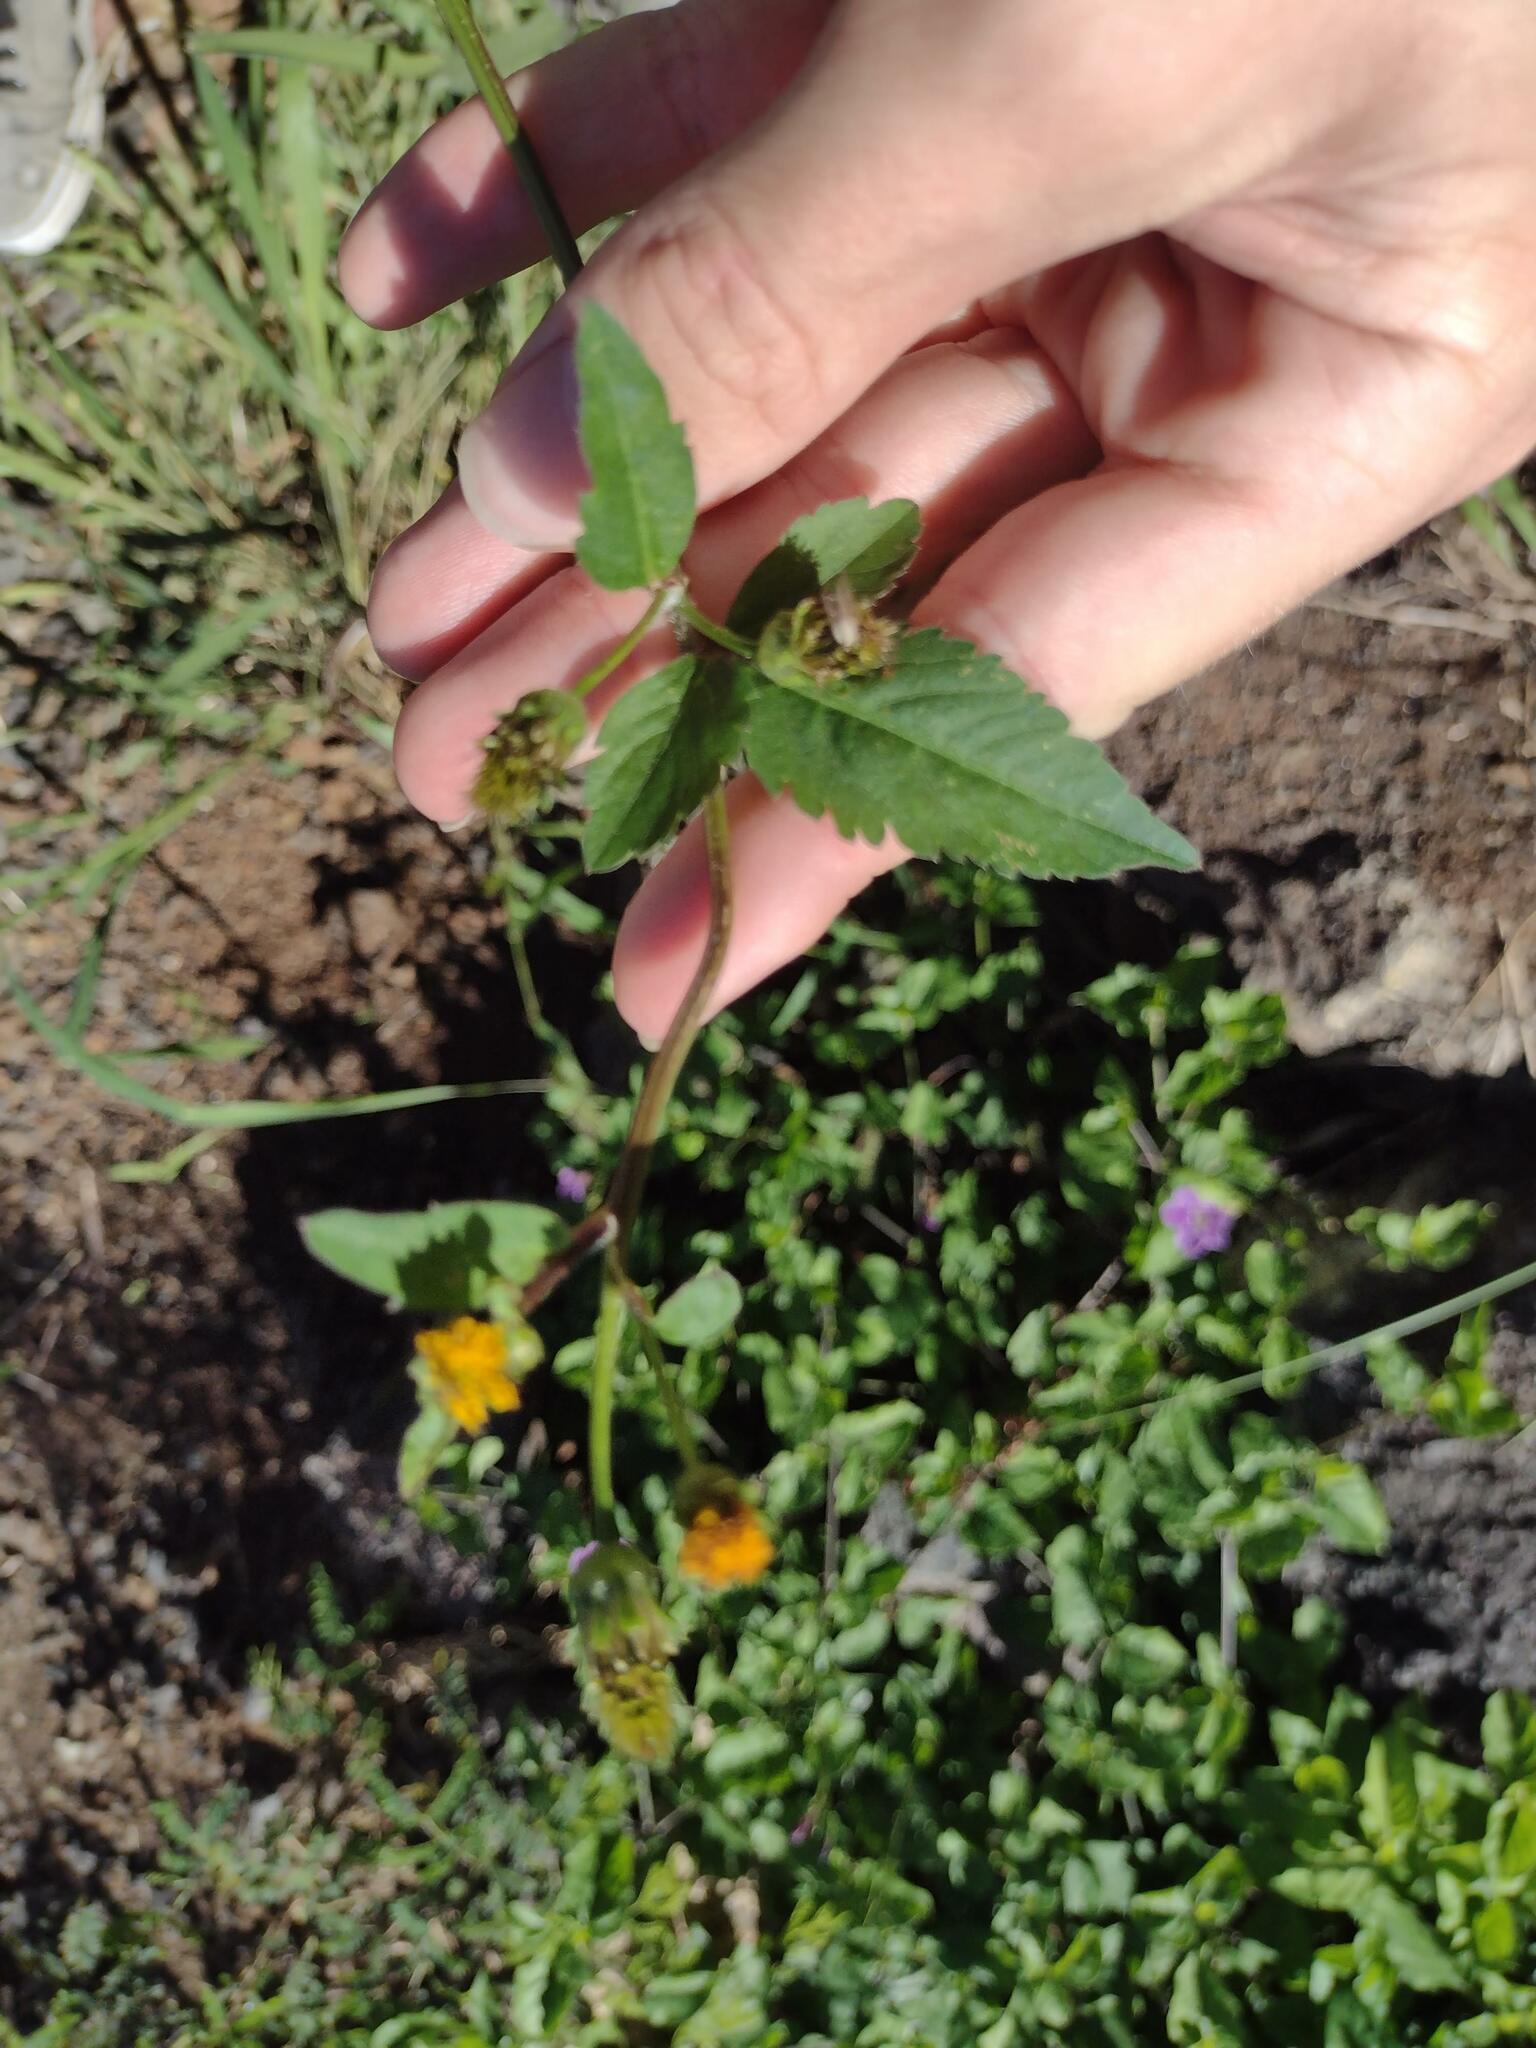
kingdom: Plantae
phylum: Tracheophyta
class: Magnoliopsida
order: Asterales
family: Asteraceae
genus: Bidens
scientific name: Bidens pilosa
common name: Black-jack
